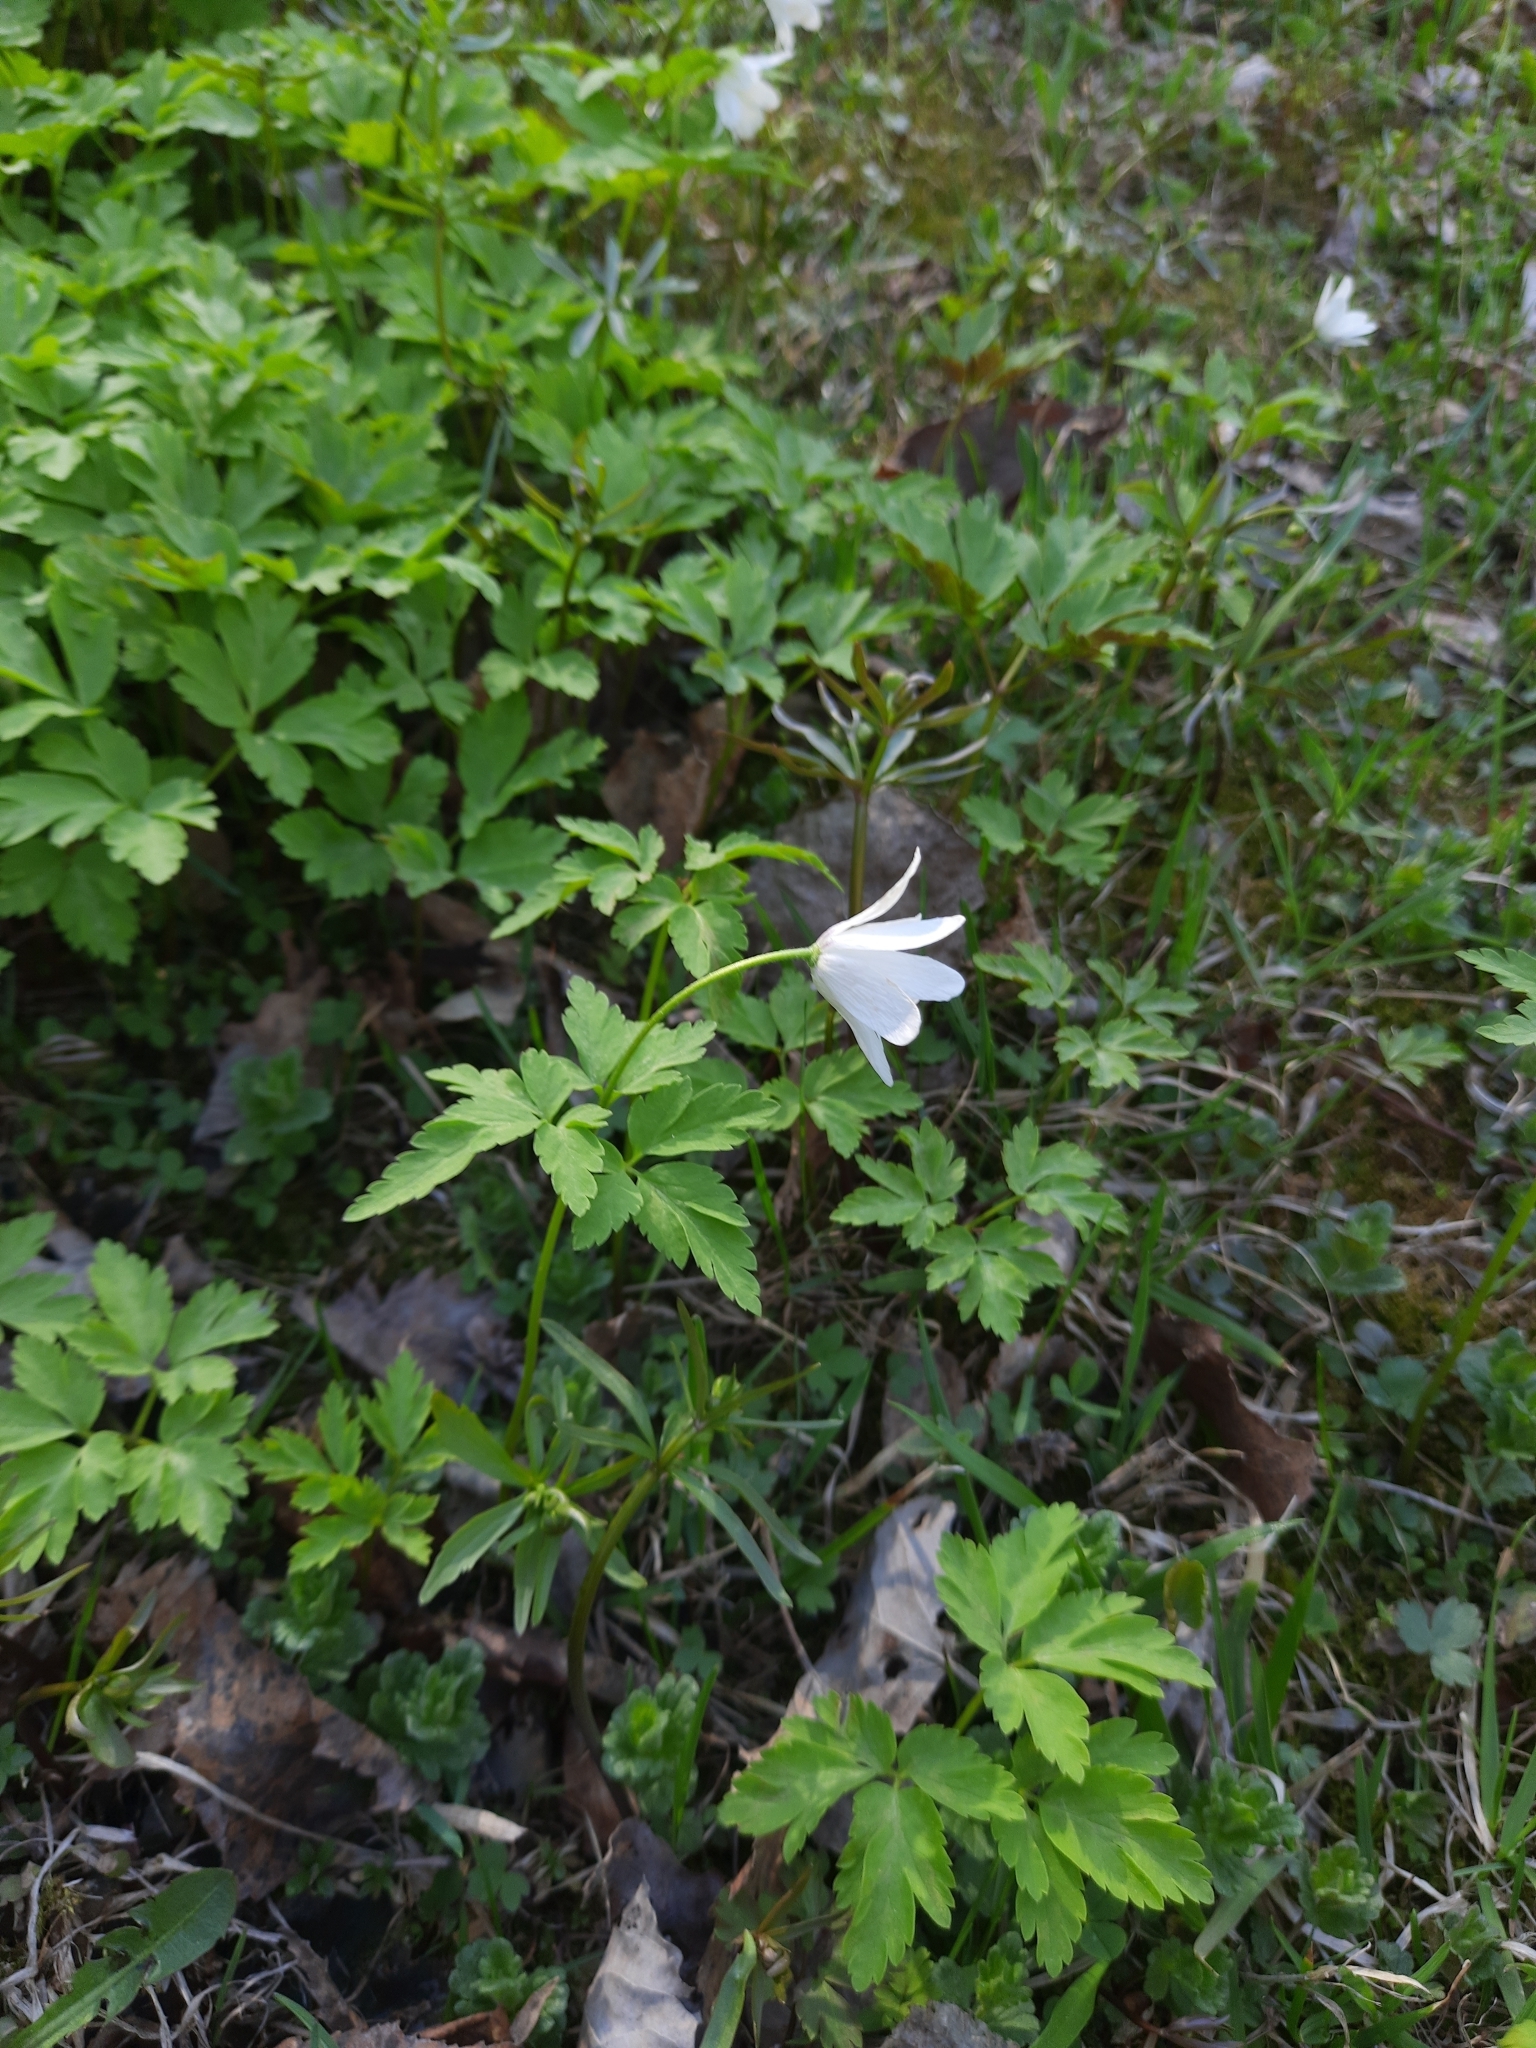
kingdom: Plantae
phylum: Tracheophyta
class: Magnoliopsida
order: Ranunculales
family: Ranunculaceae
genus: Anemone
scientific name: Anemone altaica
